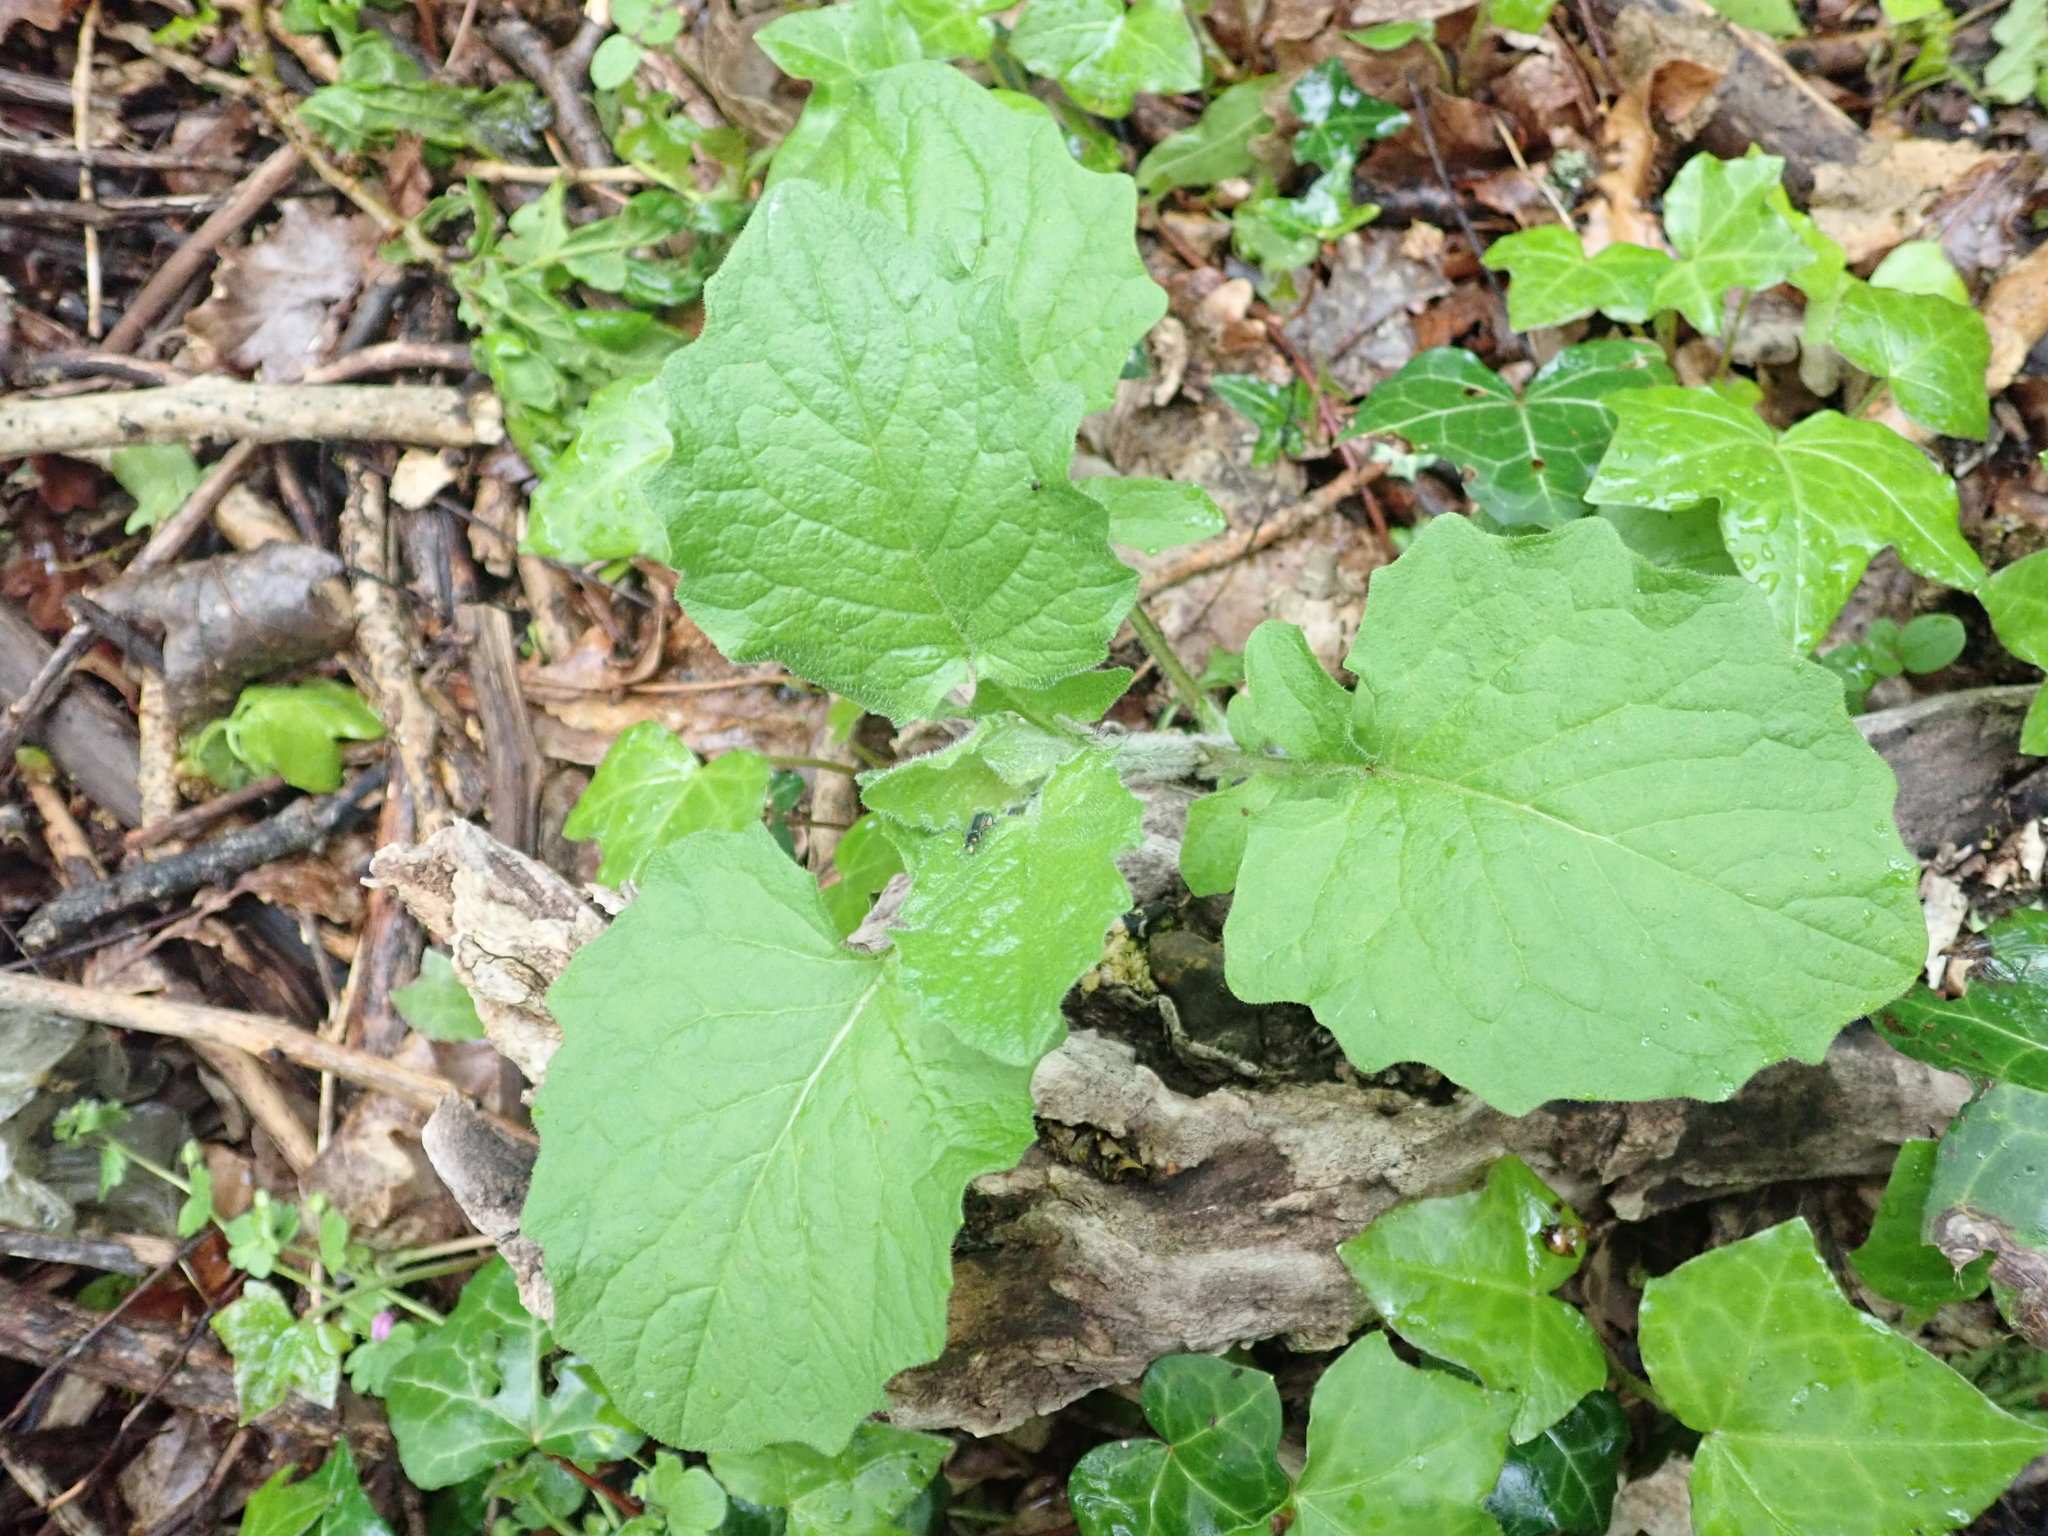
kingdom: Plantae
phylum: Tracheophyta
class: Magnoliopsida
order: Asterales
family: Asteraceae
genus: Lapsana
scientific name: Lapsana communis
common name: Nipplewort
